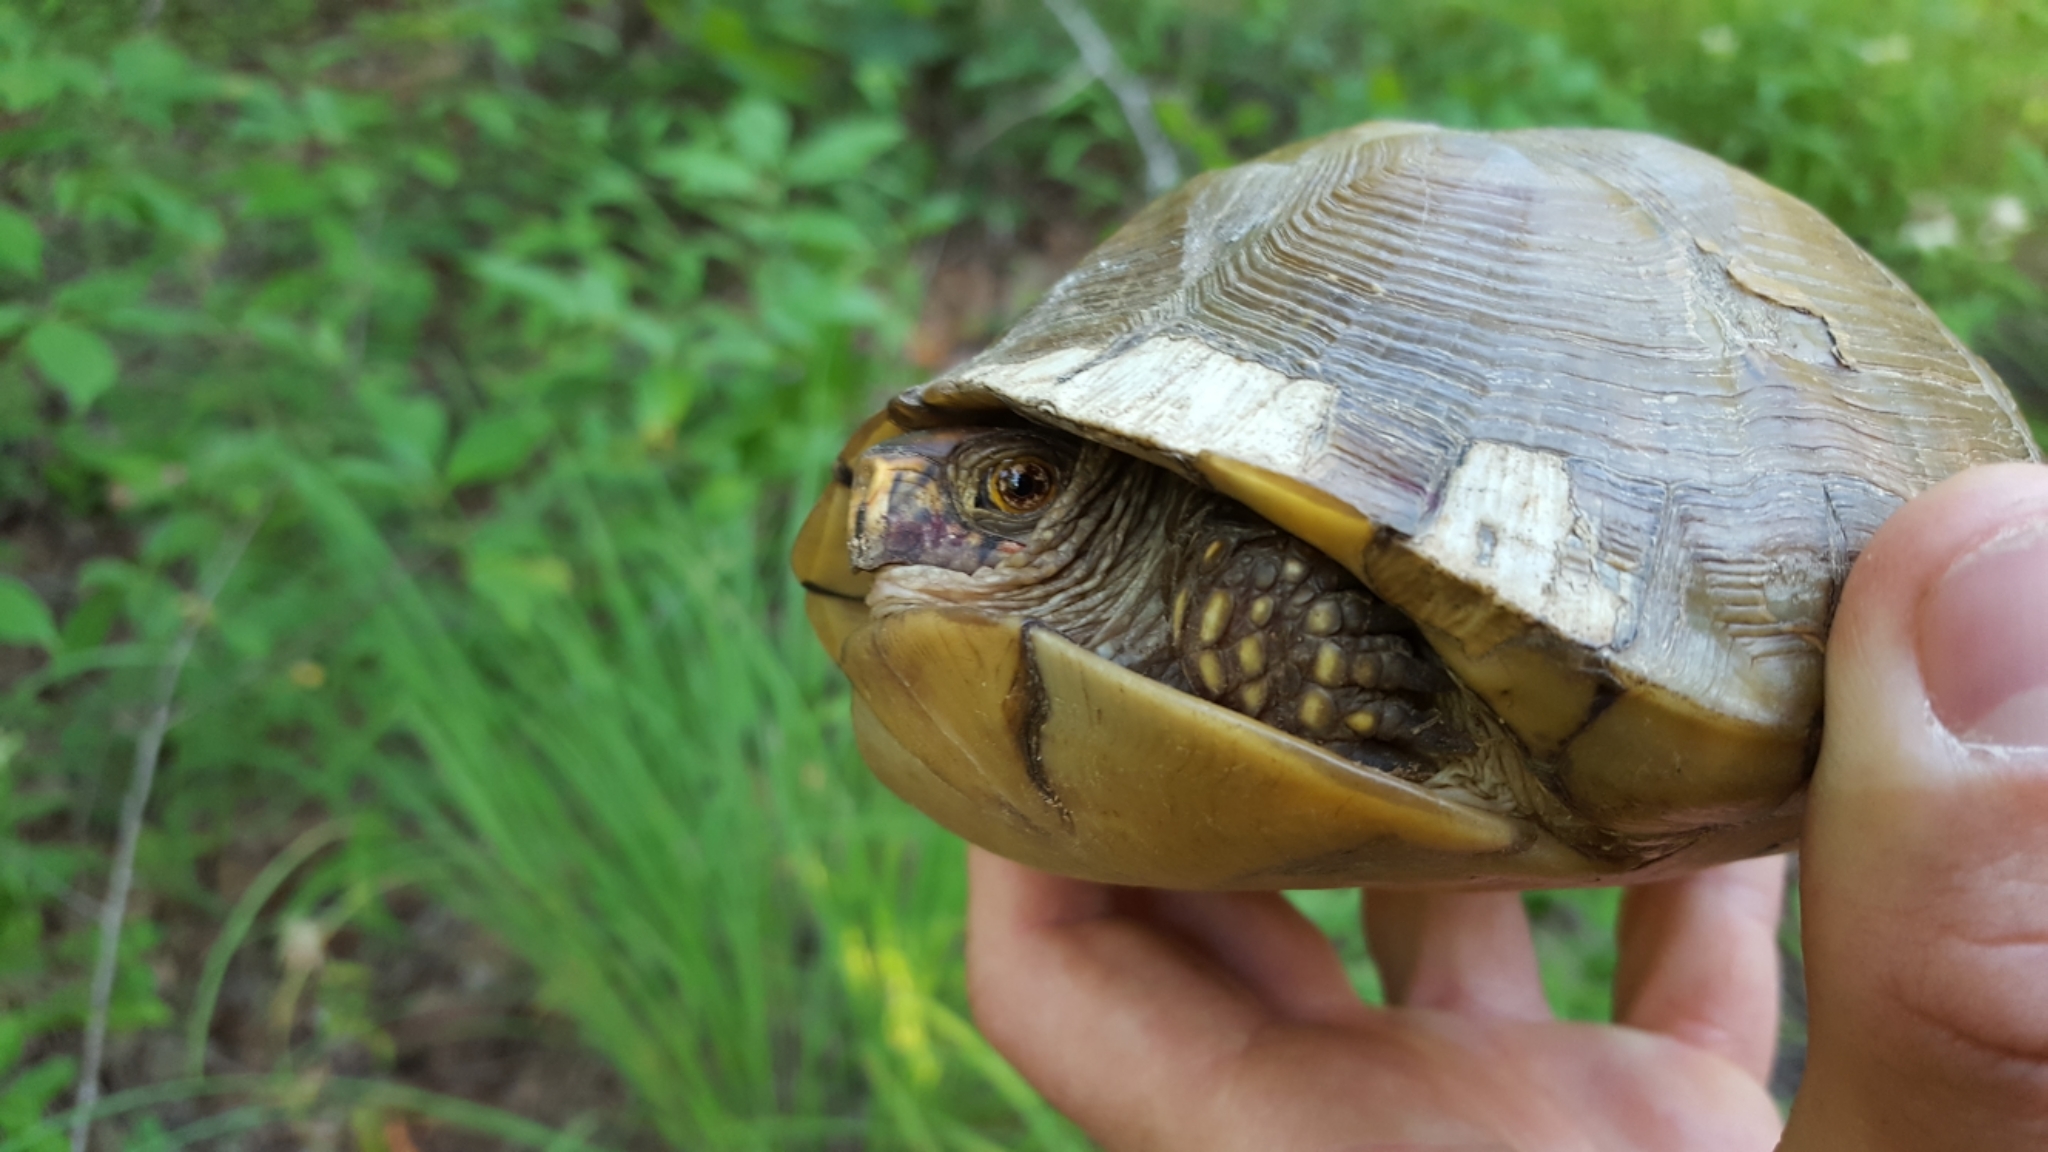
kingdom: Animalia
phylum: Chordata
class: Testudines
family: Emydidae
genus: Terrapene
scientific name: Terrapene carolina
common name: Common box turtle
